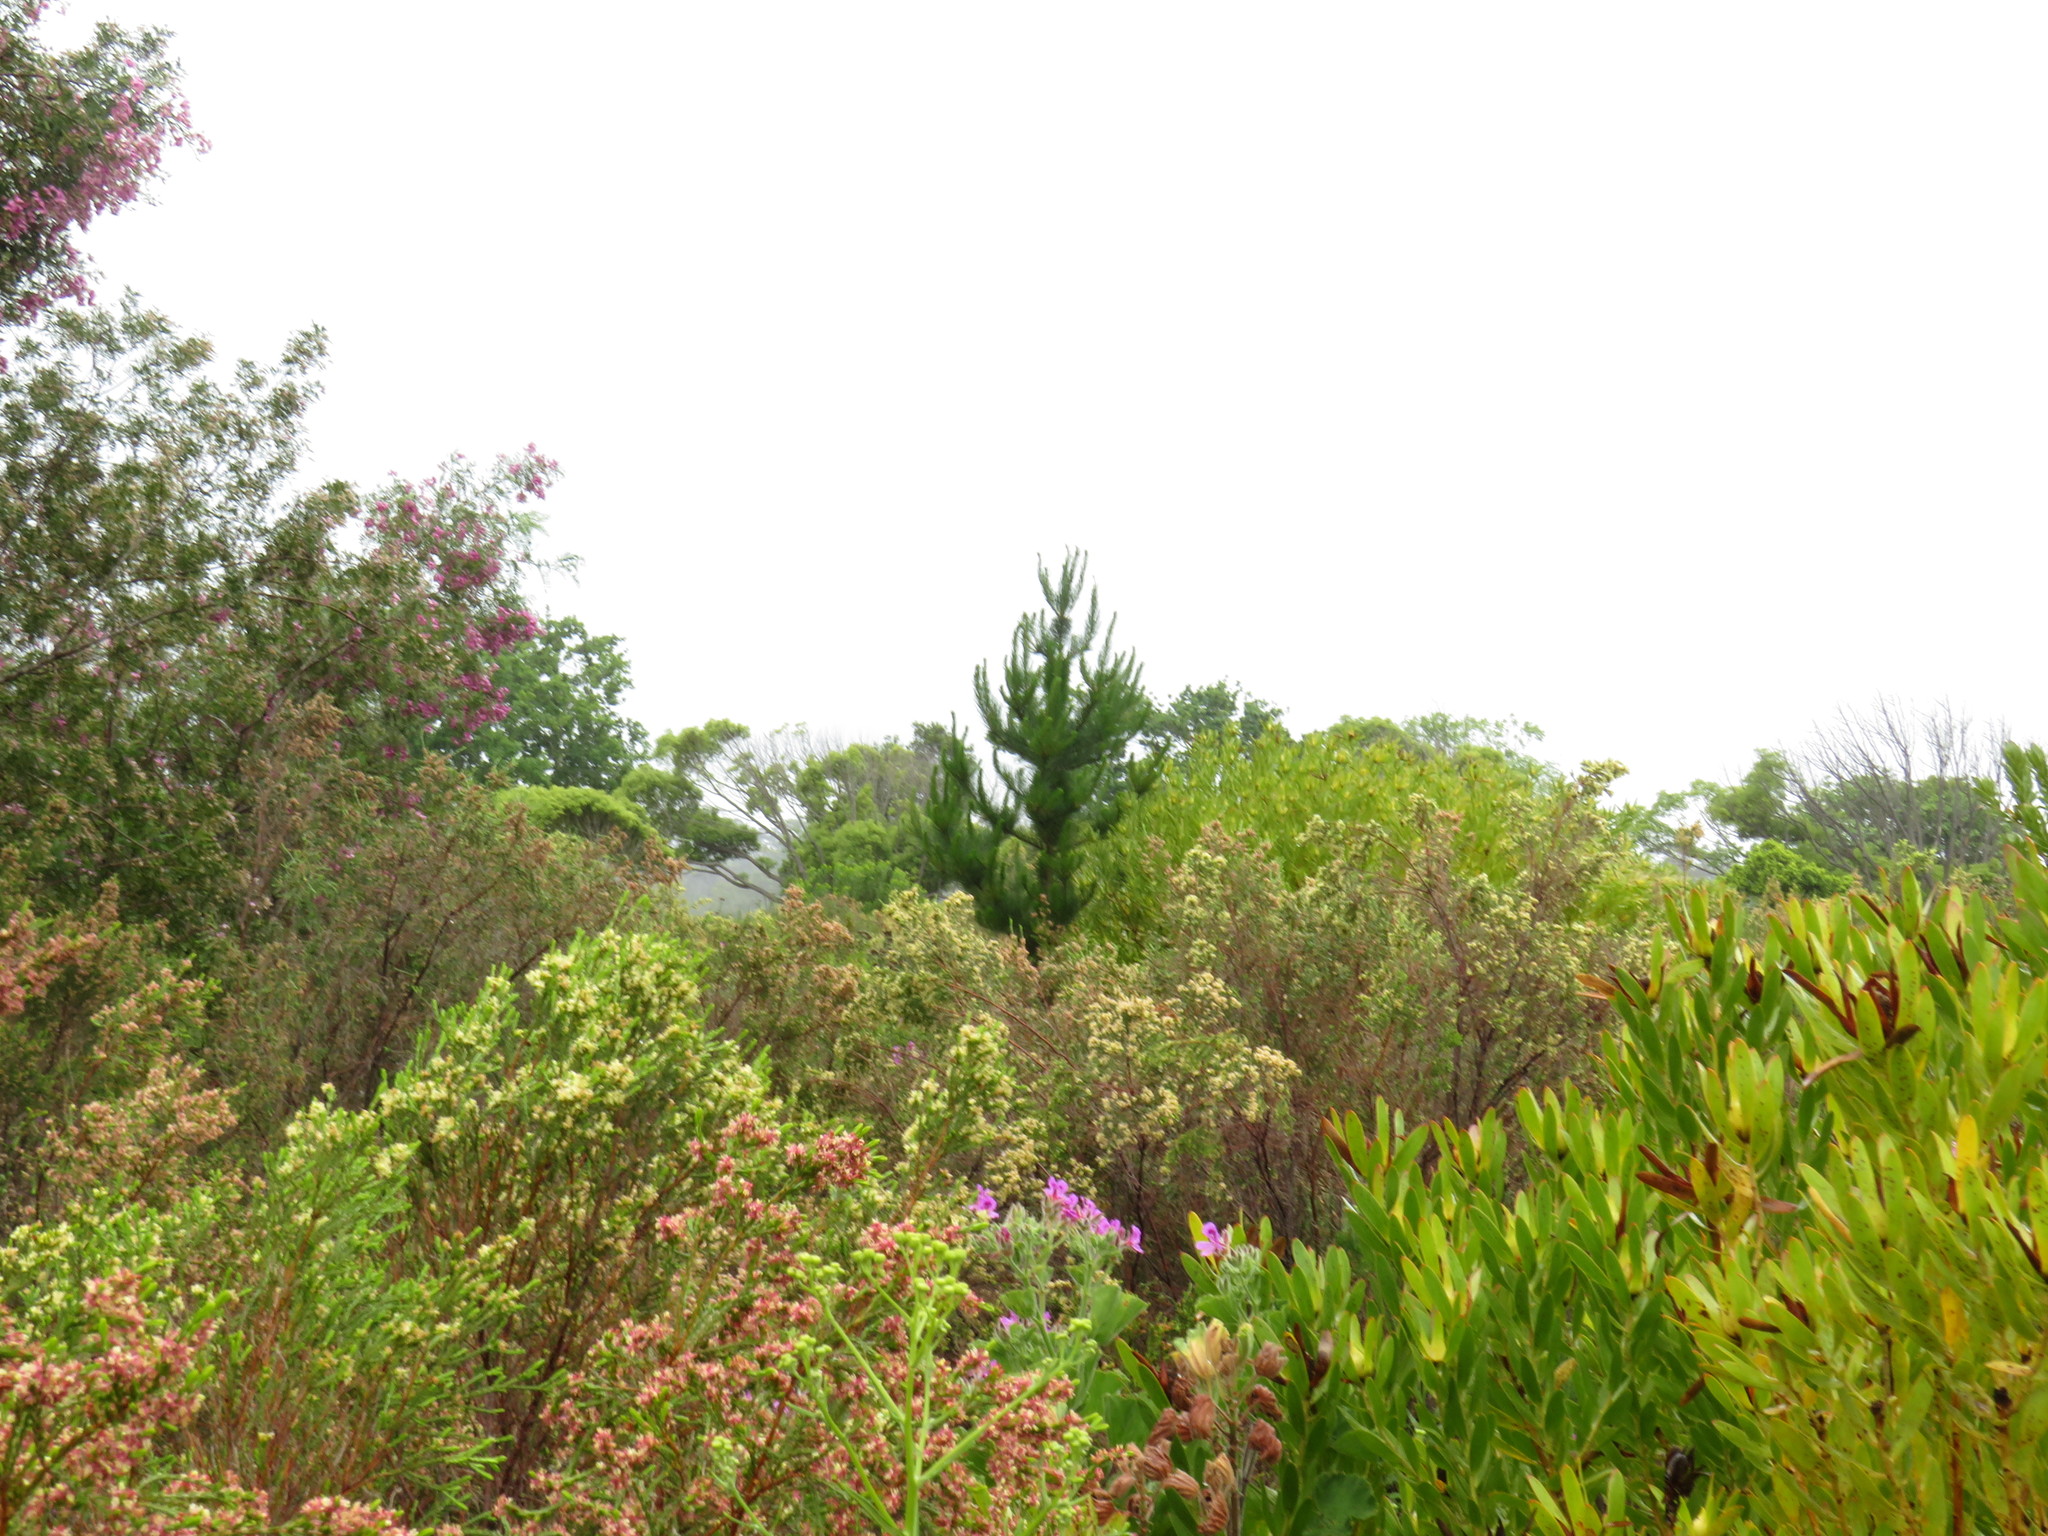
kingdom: Plantae
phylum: Tracheophyta
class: Pinopsida
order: Pinales
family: Pinaceae
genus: Pinus
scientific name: Pinus radiata
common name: Monterey pine
